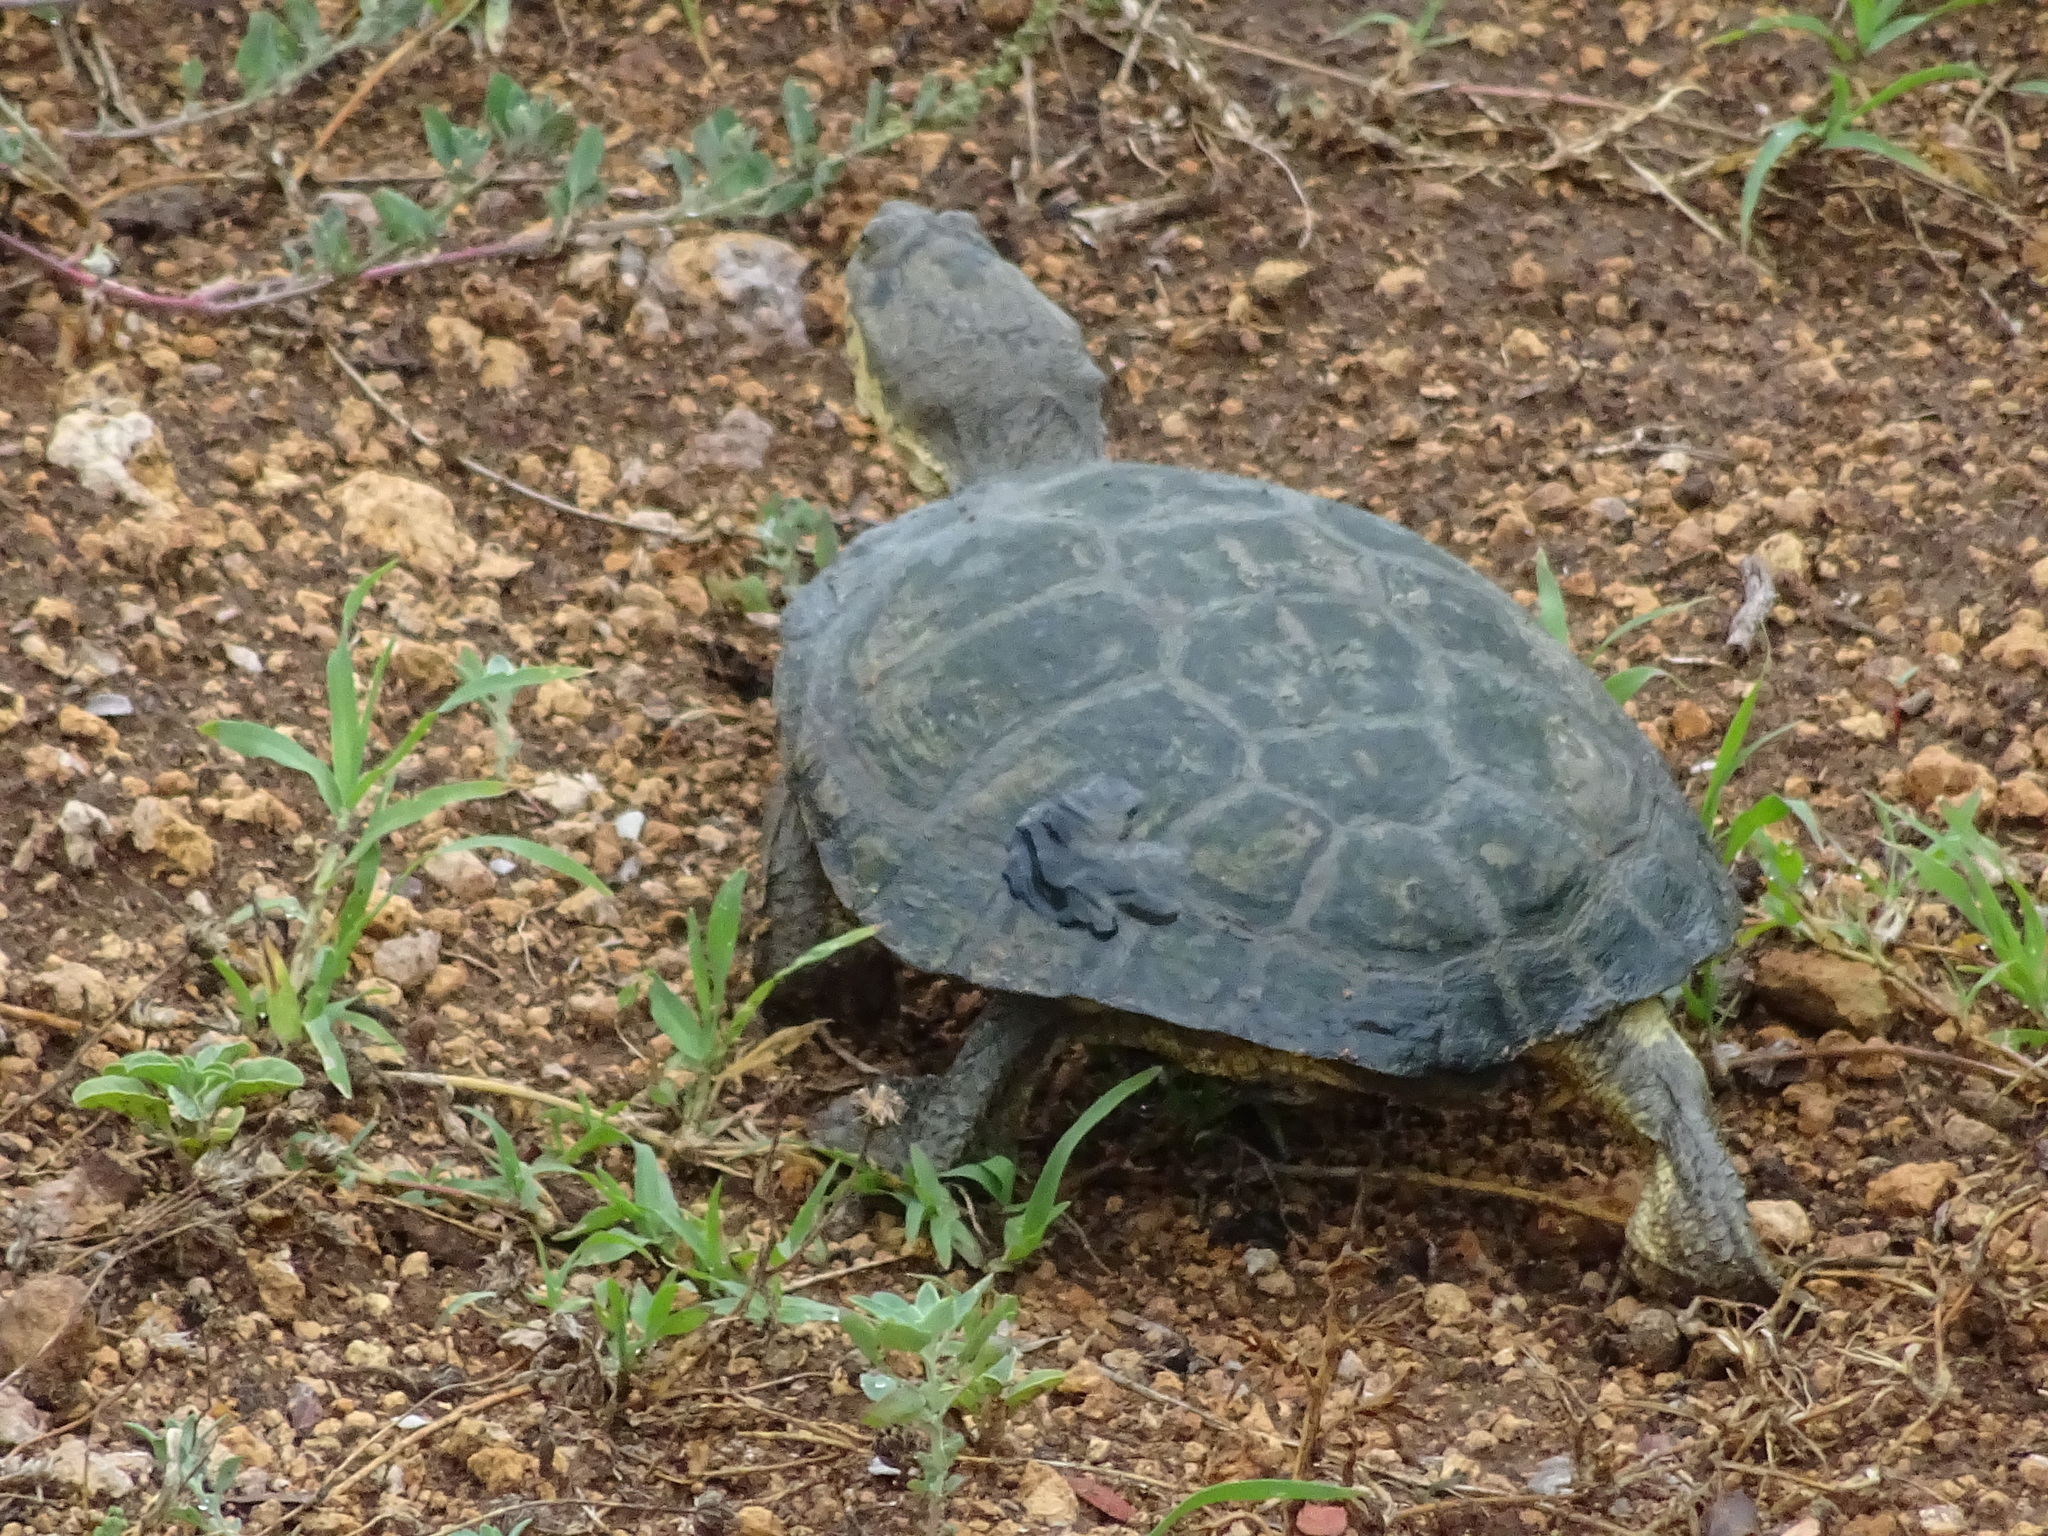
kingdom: Animalia
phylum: Chordata
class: Testudines
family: Pelomedusidae
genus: Pelomedusa
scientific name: Pelomedusa galeata
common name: South african helmeted terrapin
